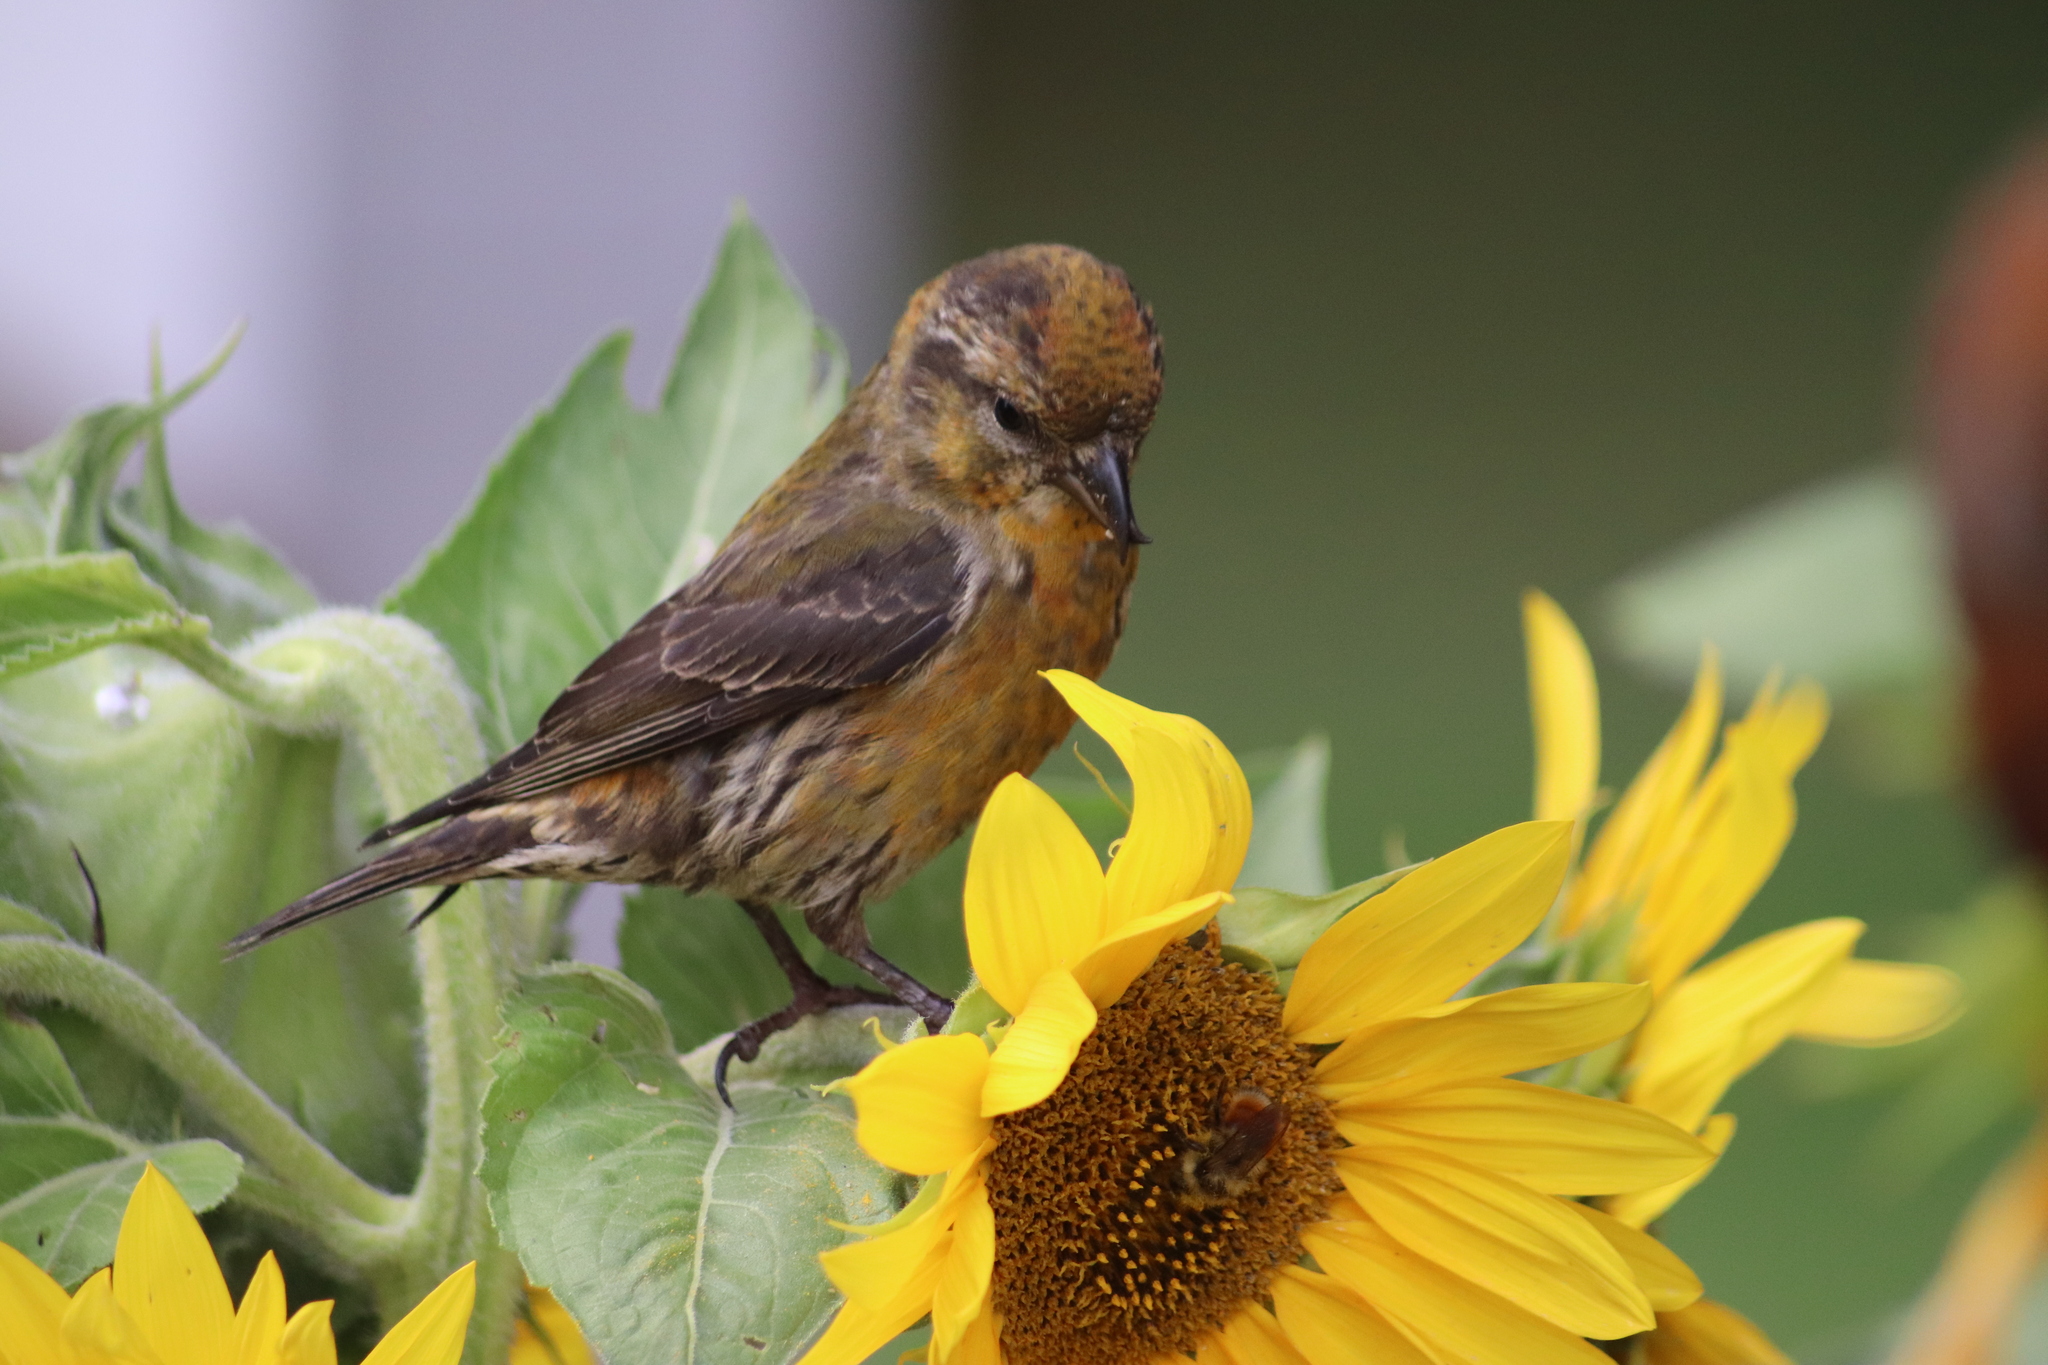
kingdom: Animalia
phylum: Chordata
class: Aves
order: Passeriformes
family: Fringillidae
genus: Loxia
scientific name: Loxia curvirostra
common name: Red crossbill
